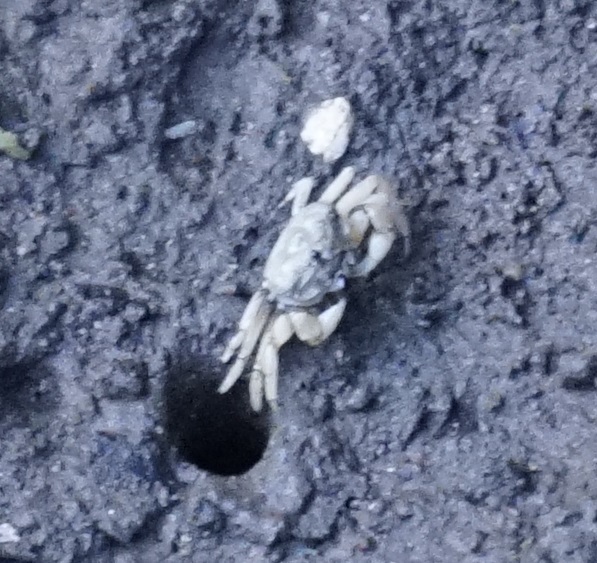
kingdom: Animalia
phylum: Arthropoda
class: Malacostraca
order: Decapoda
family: Heloeciidae
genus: Heloecius
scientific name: Heloecius cordiformis
